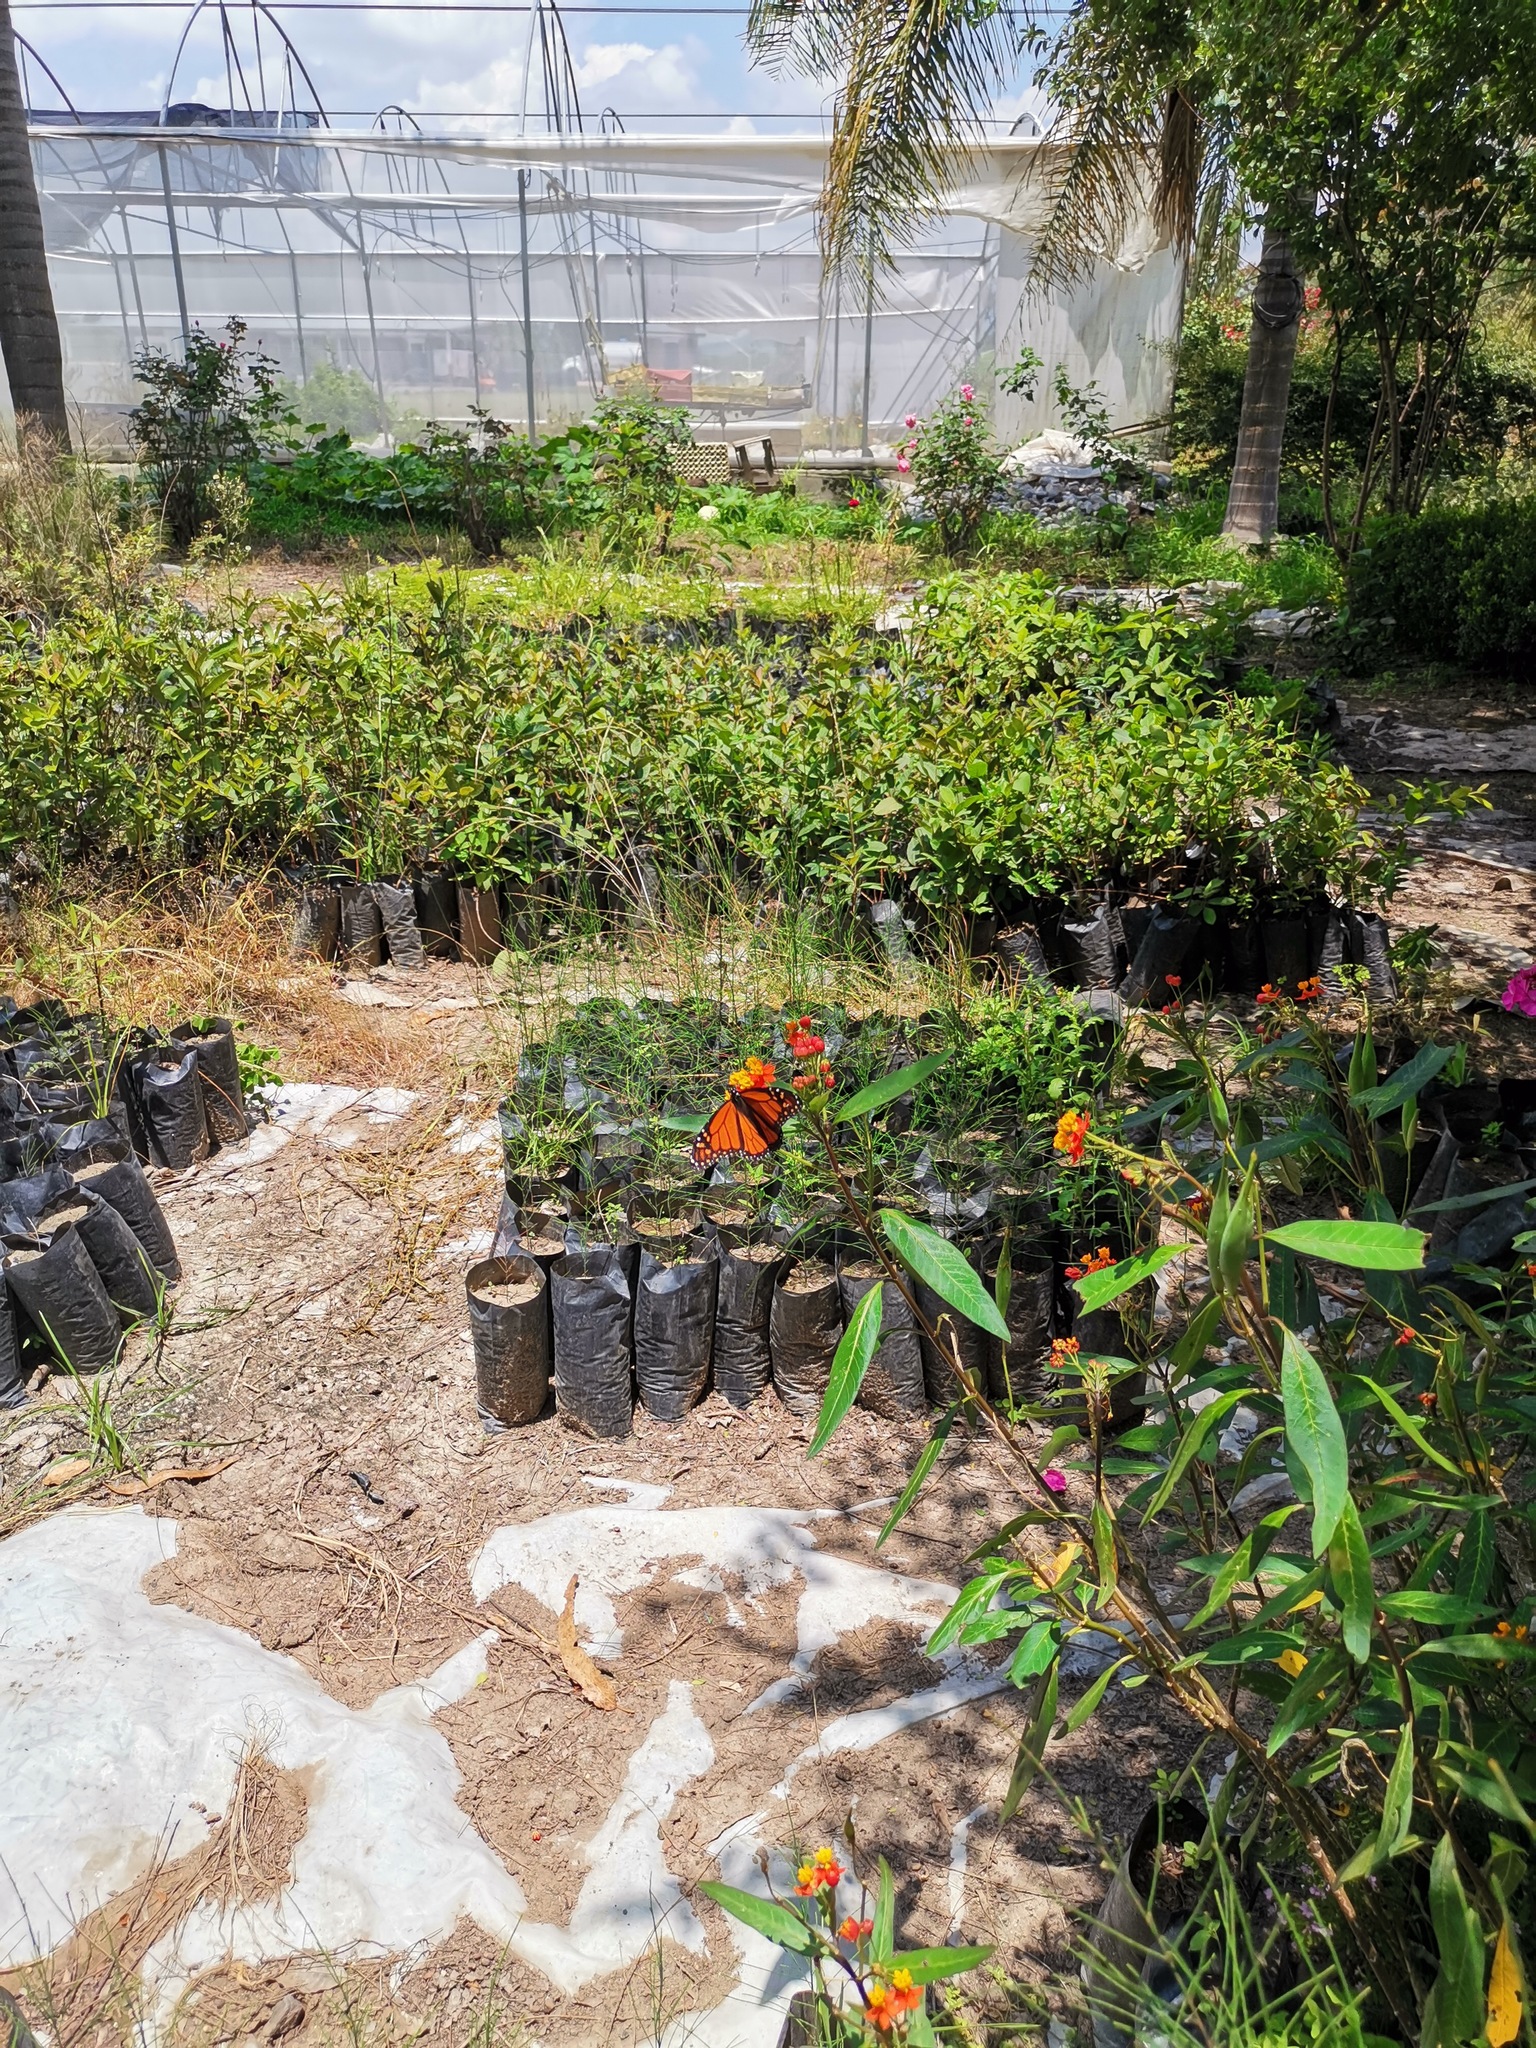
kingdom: Animalia
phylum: Arthropoda
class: Insecta
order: Lepidoptera
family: Nymphalidae
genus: Danaus
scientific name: Danaus plexippus
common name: Monarch
